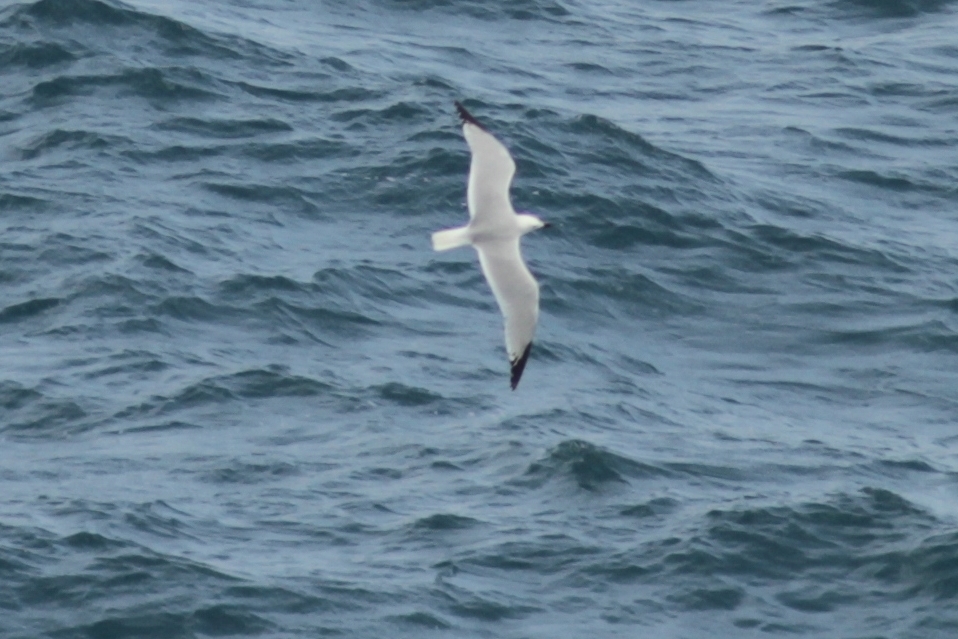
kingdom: Animalia
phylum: Chordata
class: Aves
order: Charadriiformes
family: Laridae
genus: Ichthyaetus
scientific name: Ichthyaetus audouinii
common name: Audouin's gull
